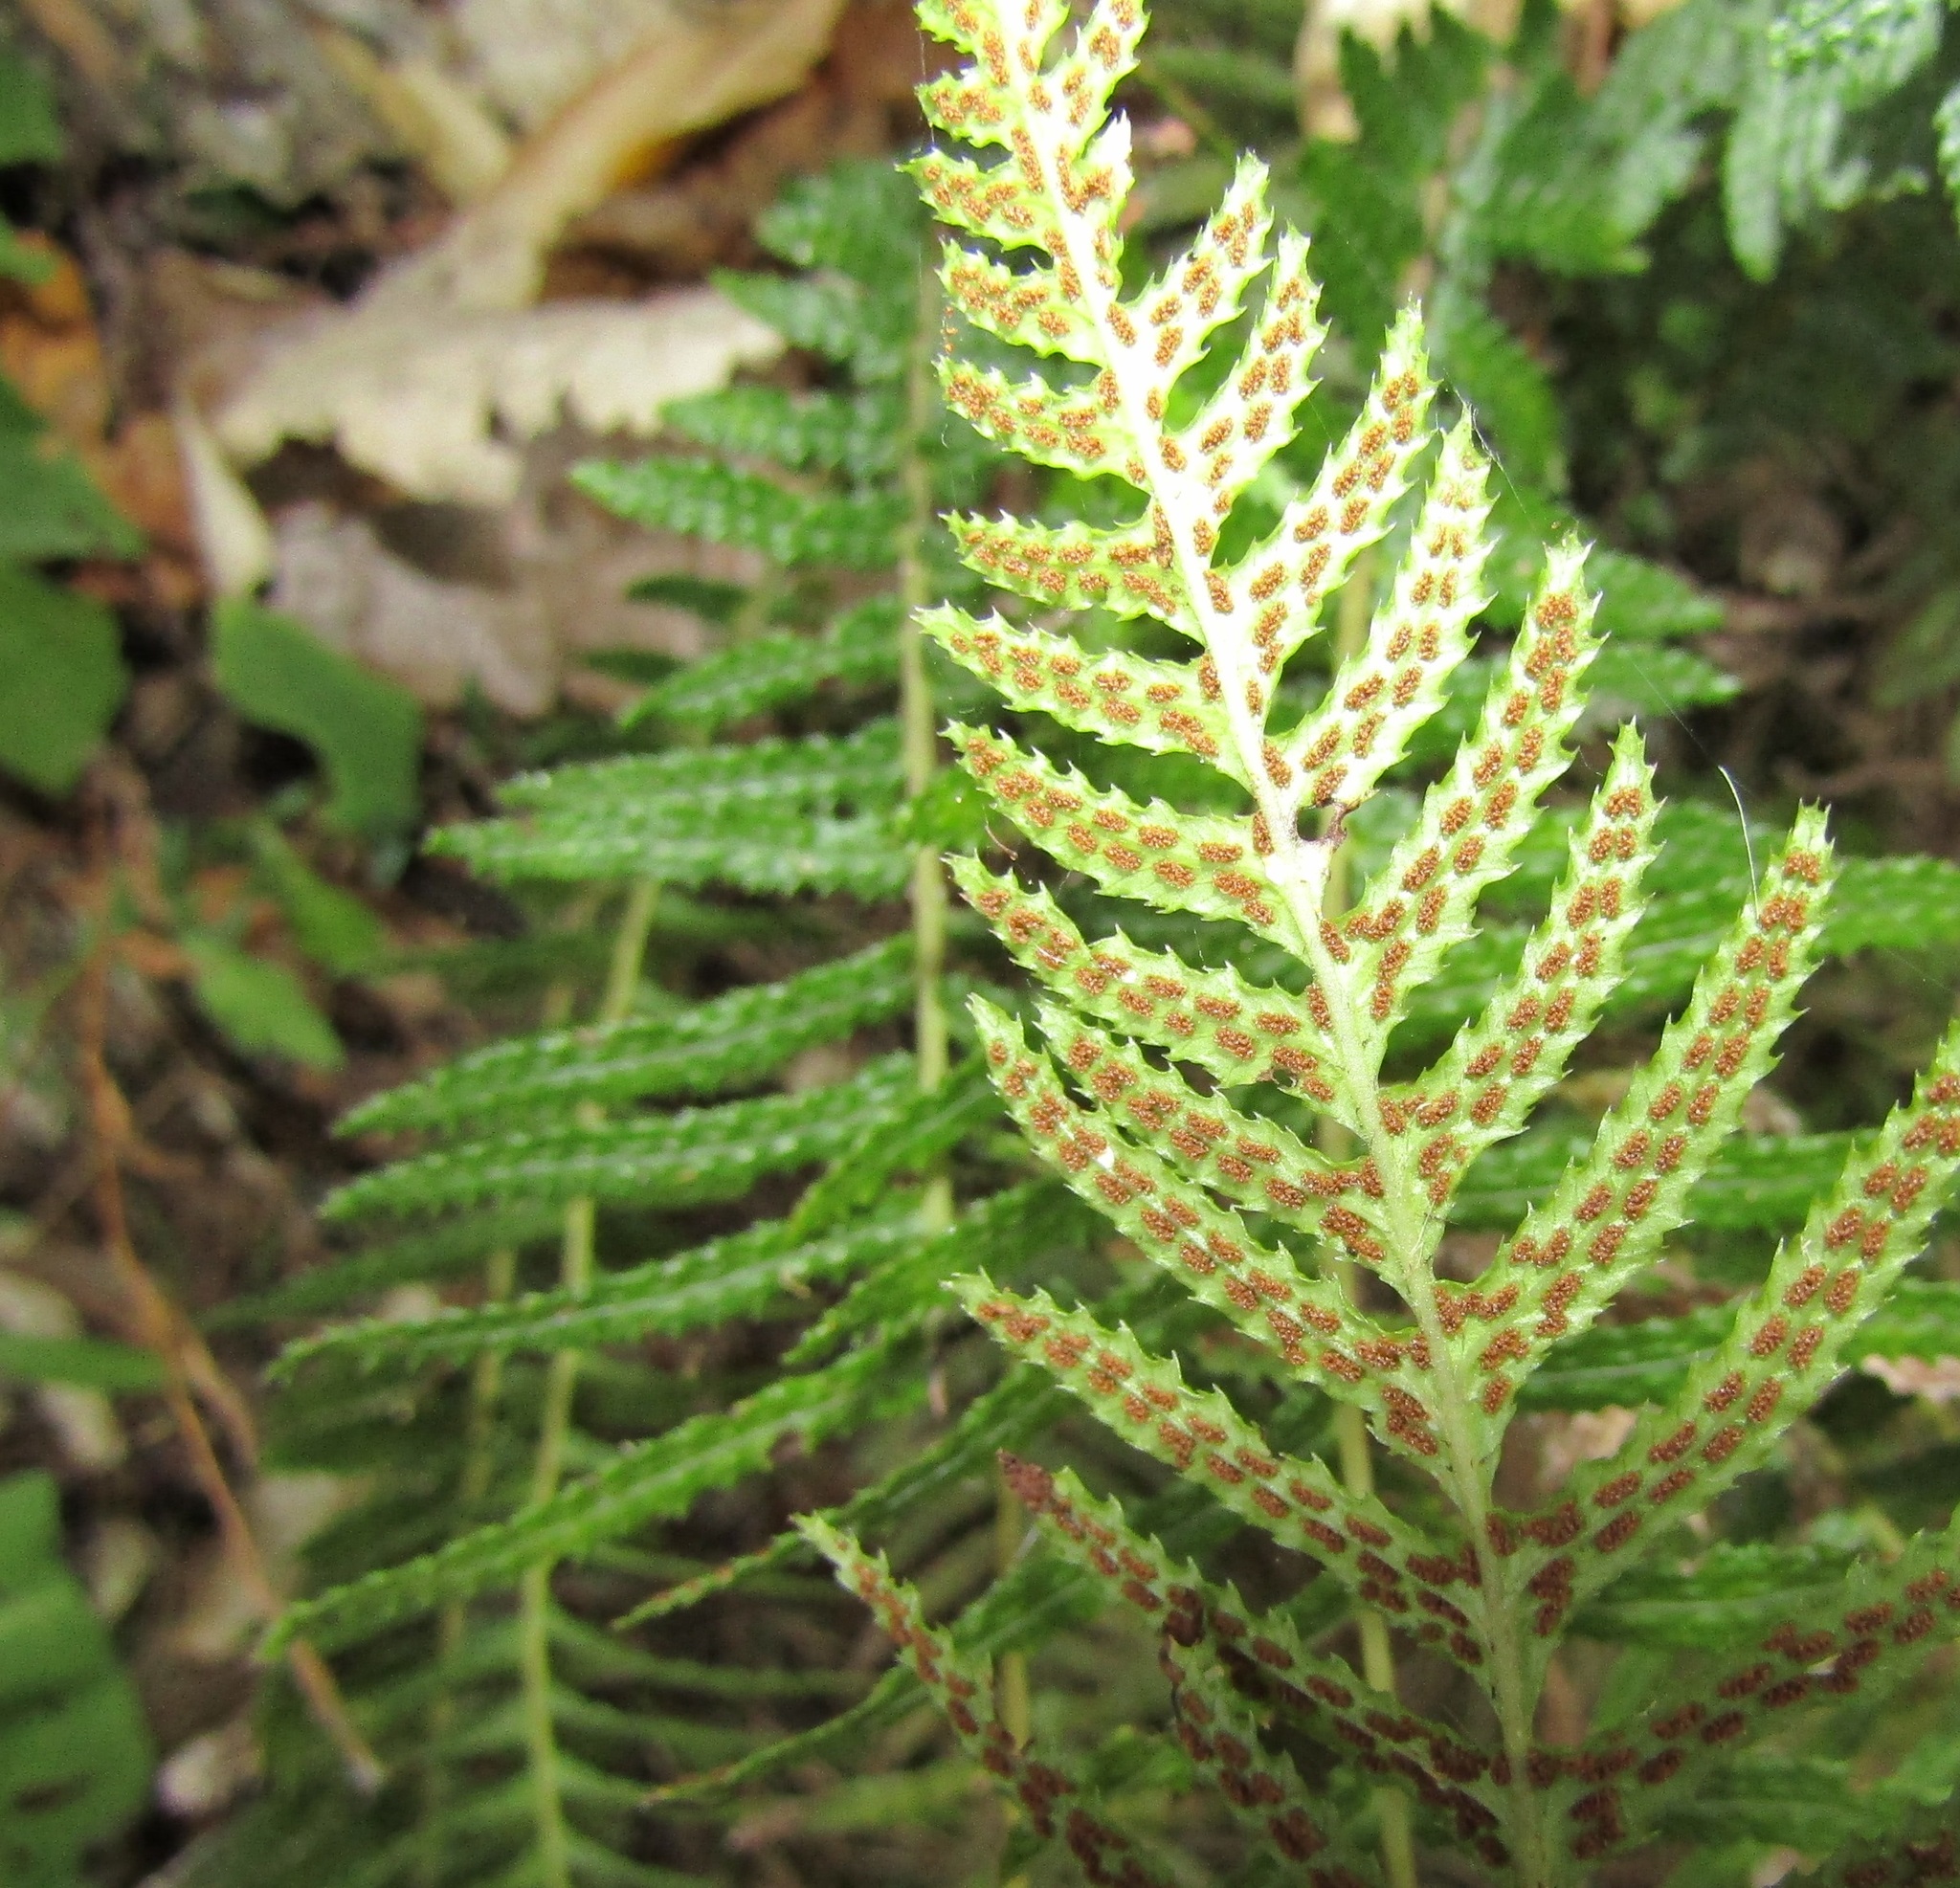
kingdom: Plantae
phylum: Tracheophyta
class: Polypodiopsida
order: Polypodiales
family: Blechnaceae
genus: Doodia
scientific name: Doodia australis
